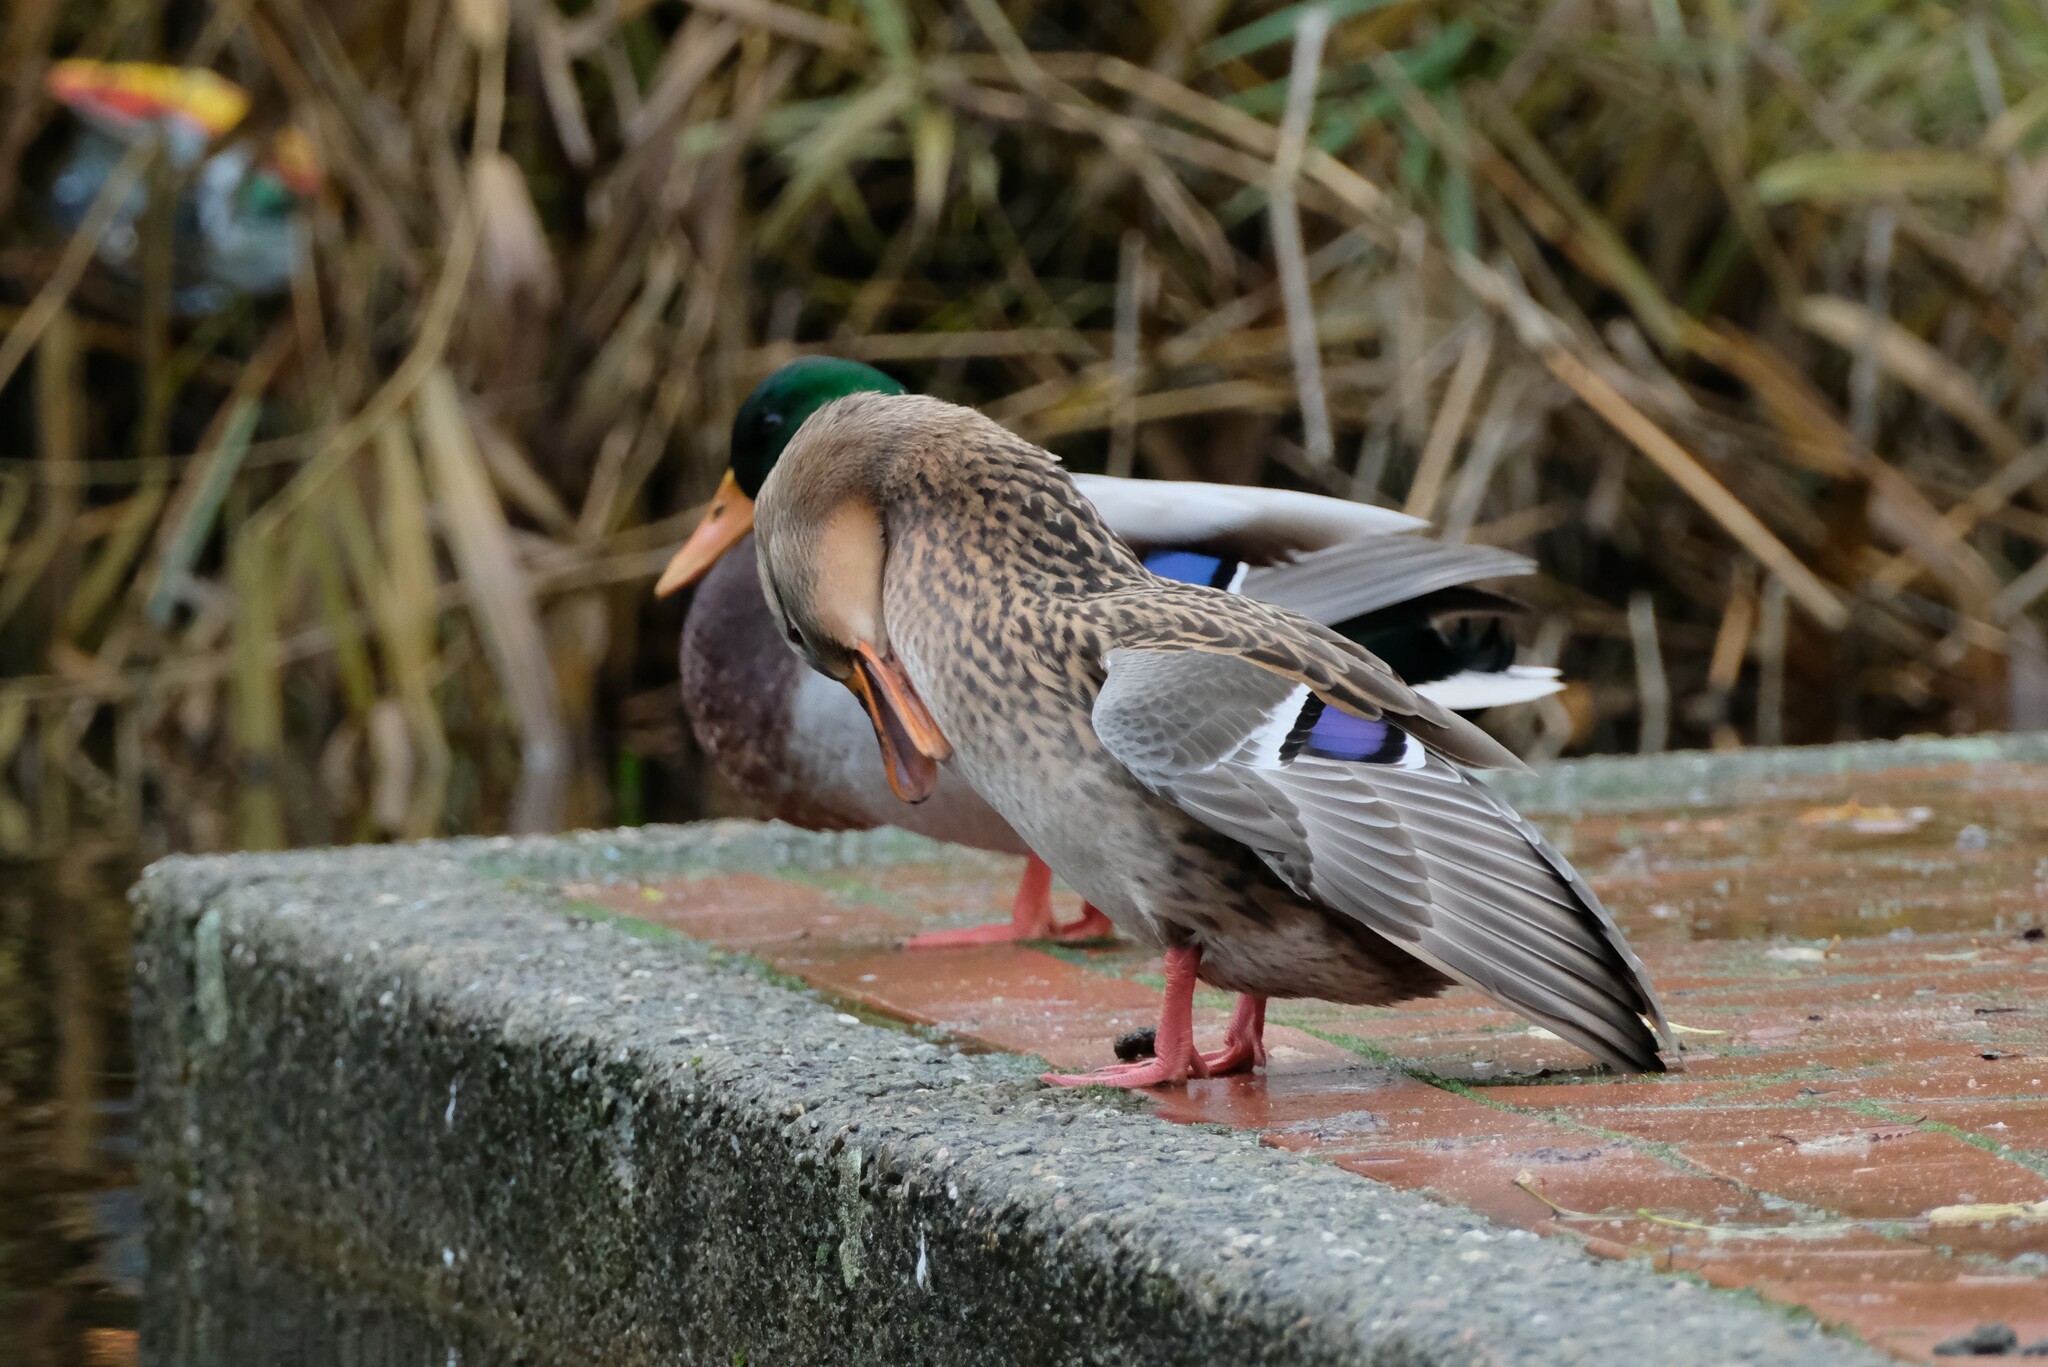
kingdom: Animalia
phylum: Chordata
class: Aves
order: Anseriformes
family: Anatidae
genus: Anas
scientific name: Anas platyrhynchos
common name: Mallard
